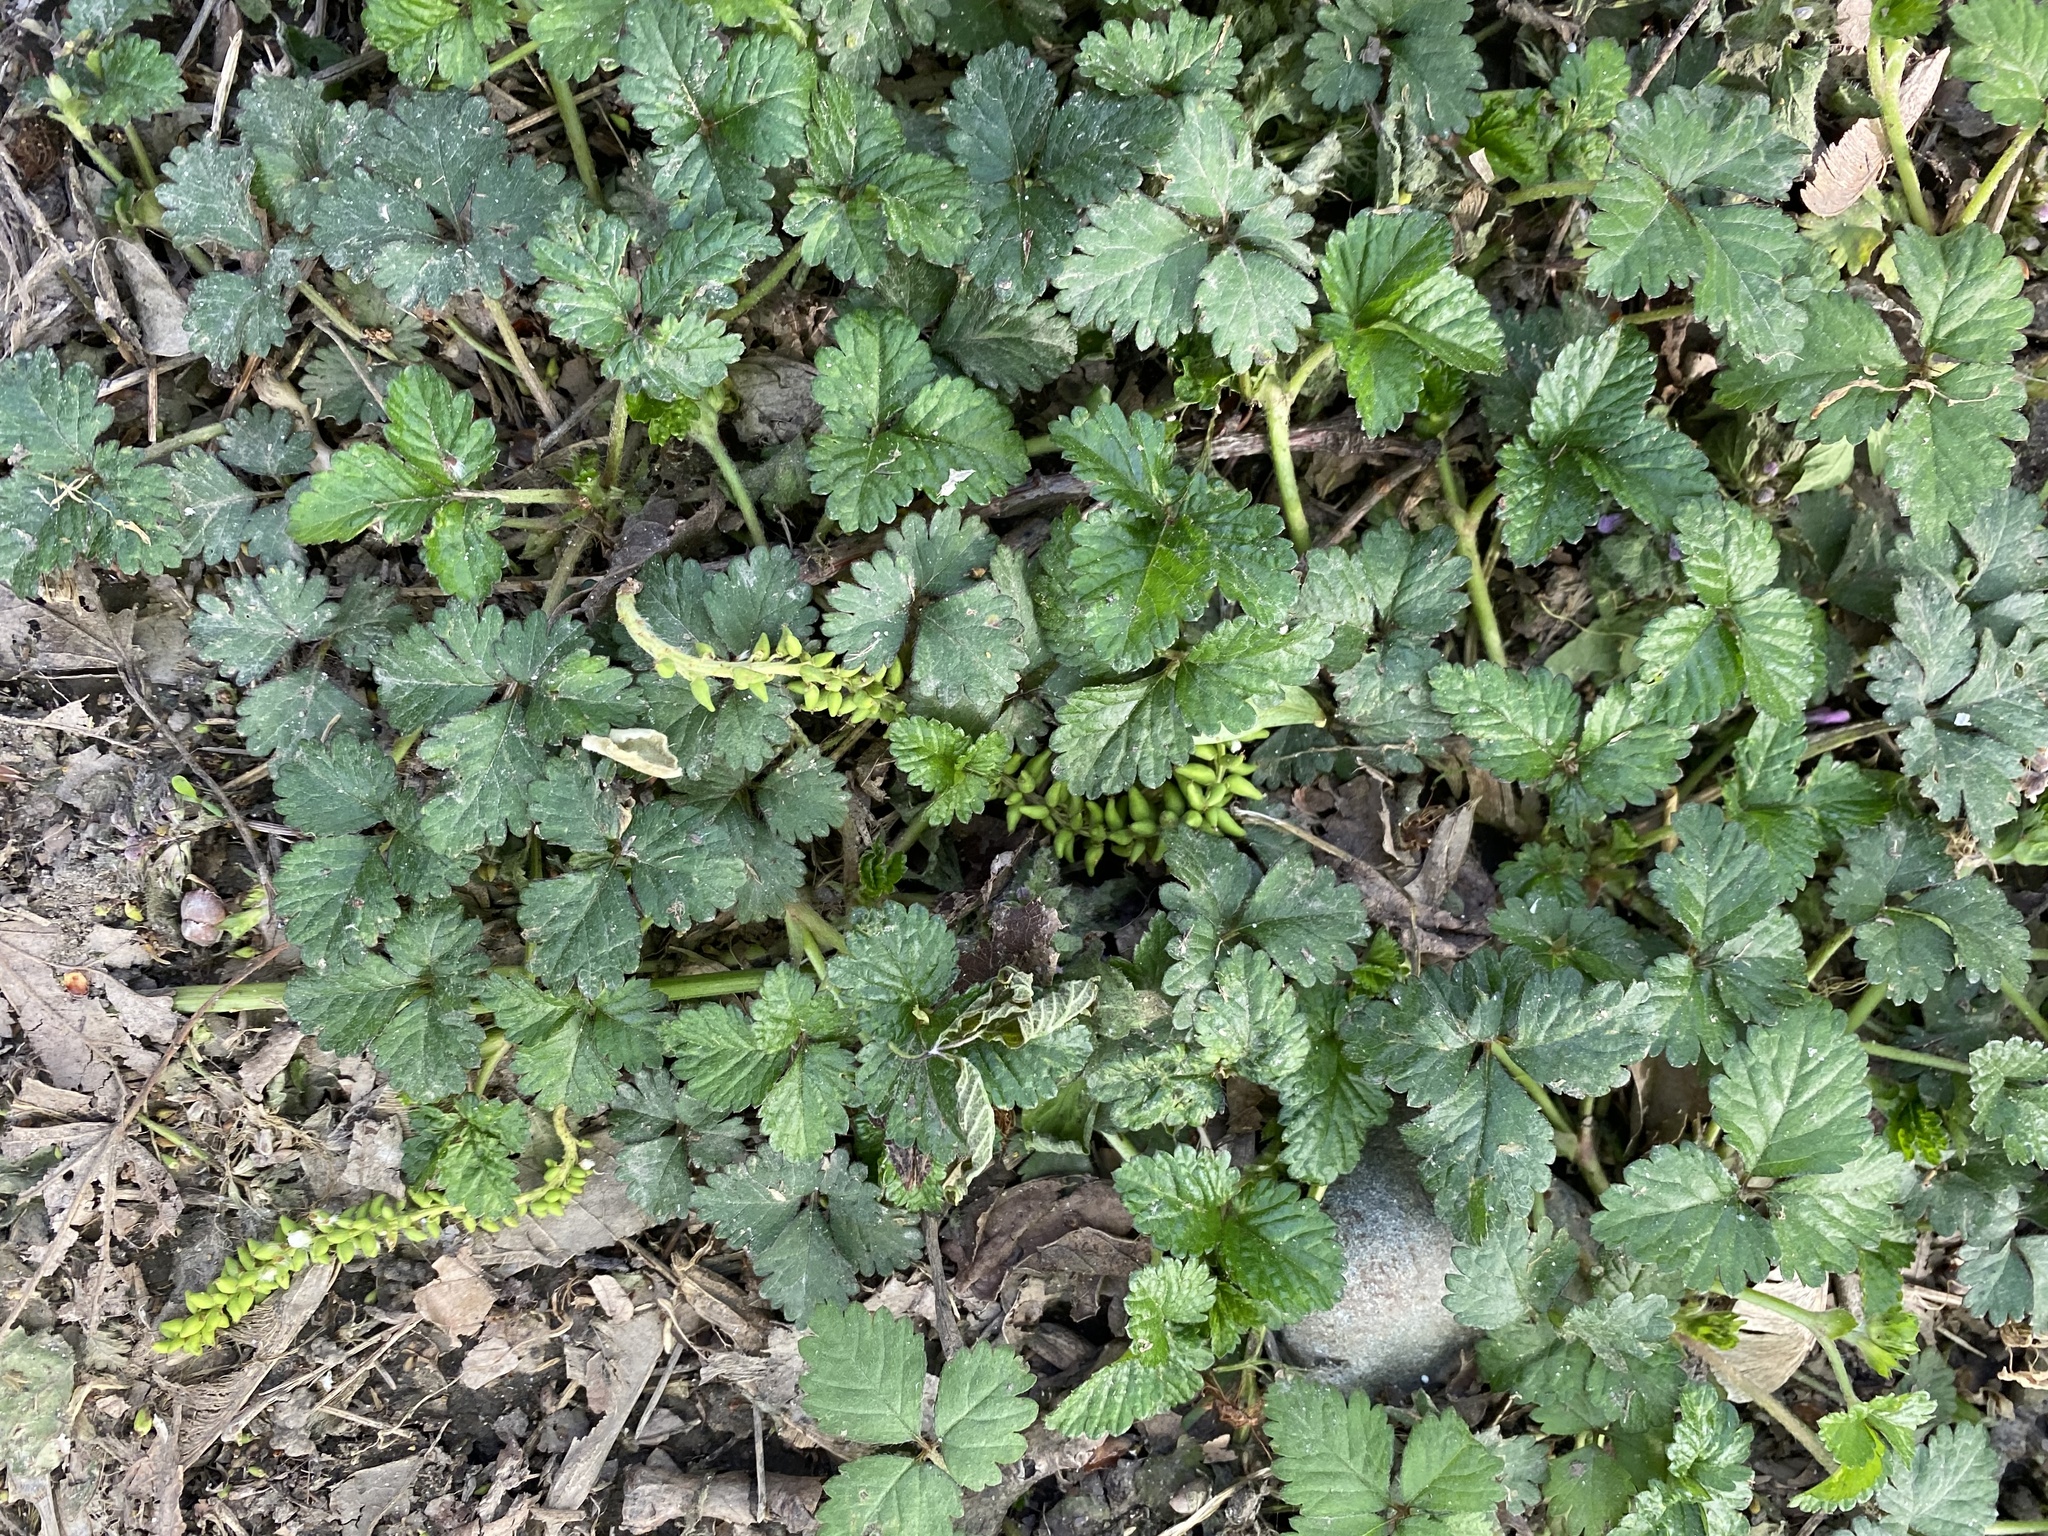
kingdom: Plantae
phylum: Tracheophyta
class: Magnoliopsida
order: Rosales
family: Rosaceae
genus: Potentilla
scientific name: Potentilla indica
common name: Yellow-flowered strawberry
